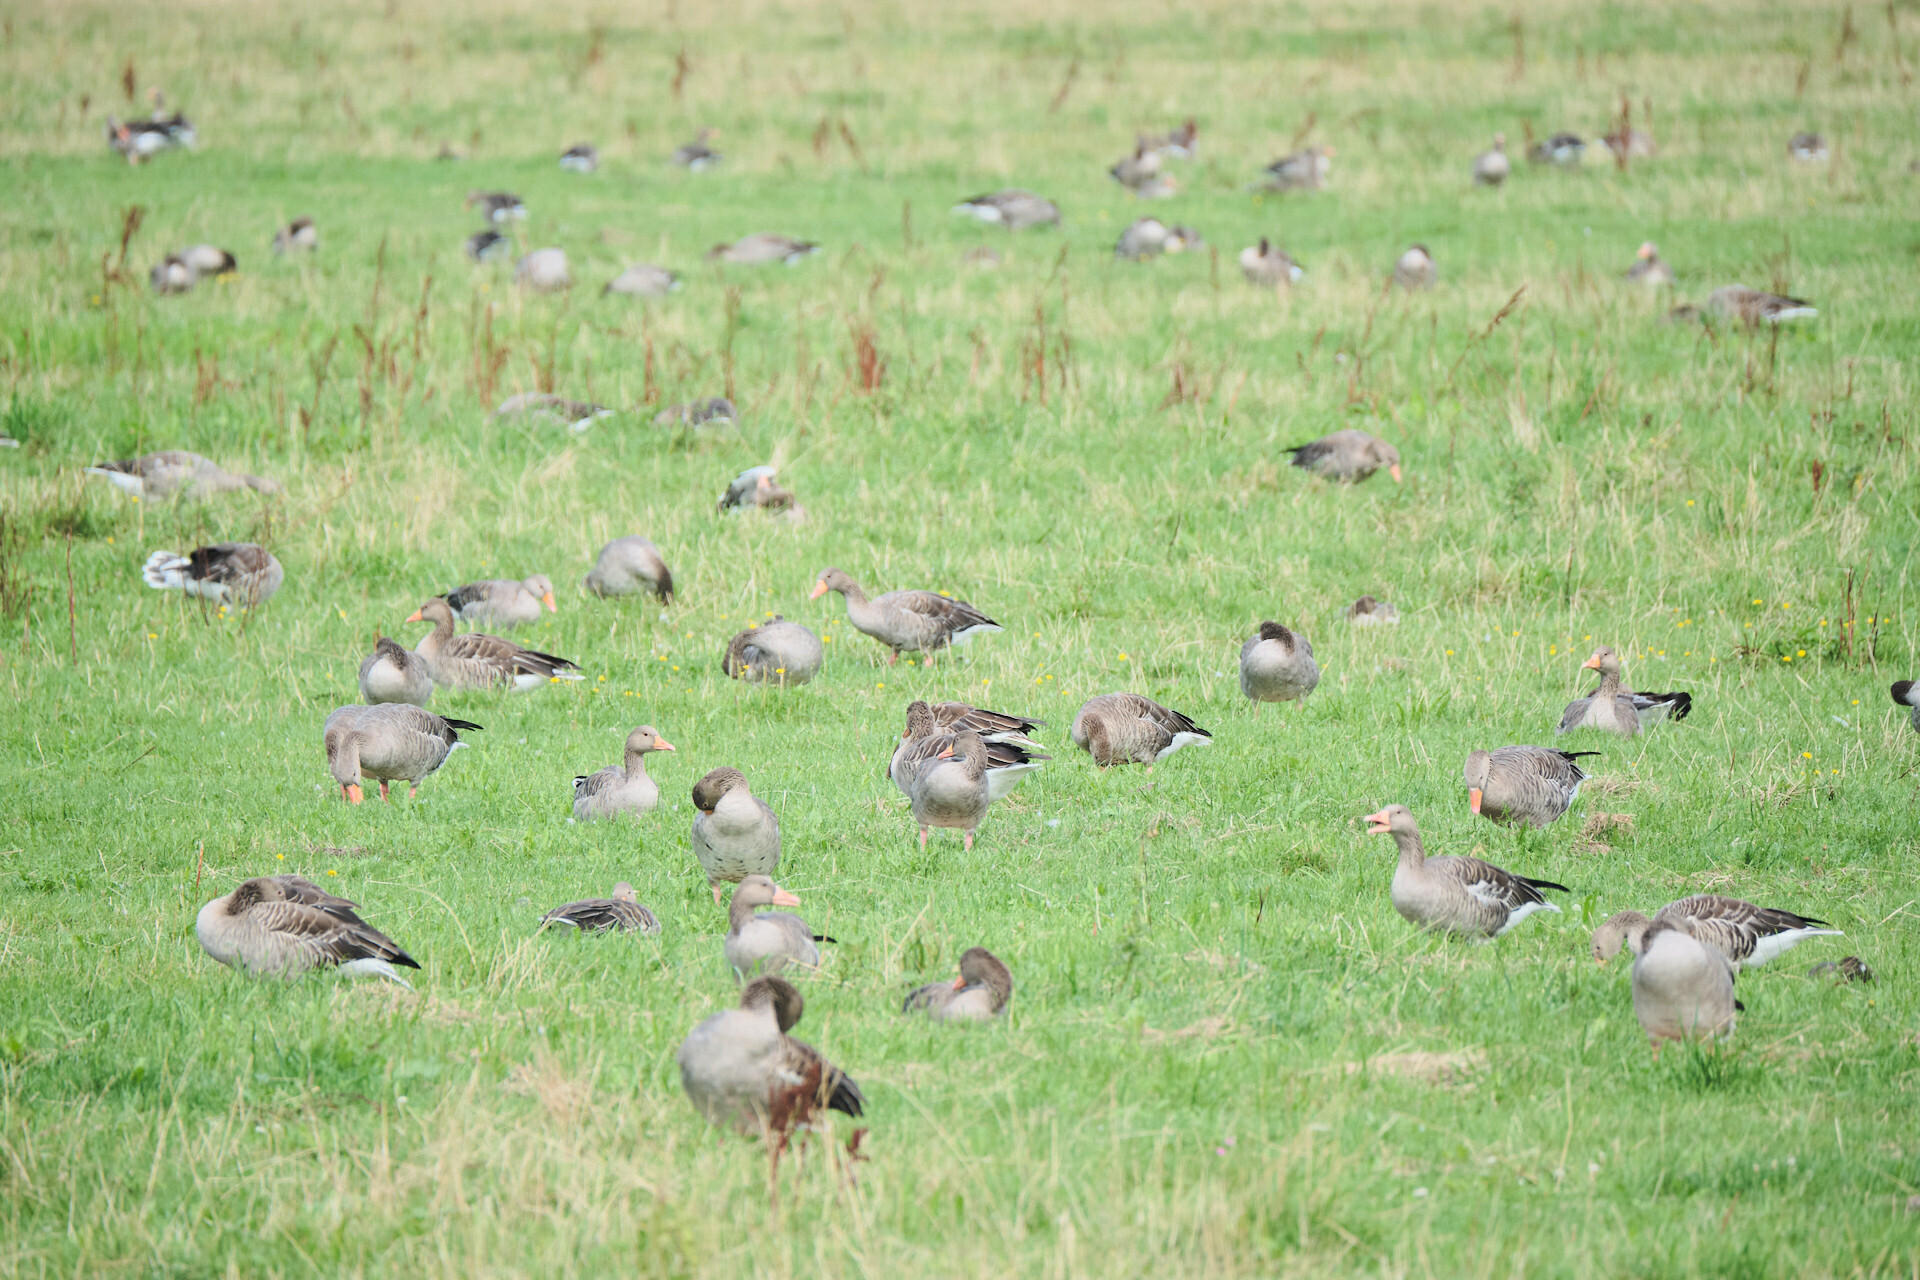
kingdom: Animalia
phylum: Chordata
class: Aves
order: Anseriformes
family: Anatidae
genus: Anser
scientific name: Anser anser
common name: Greylag goose
